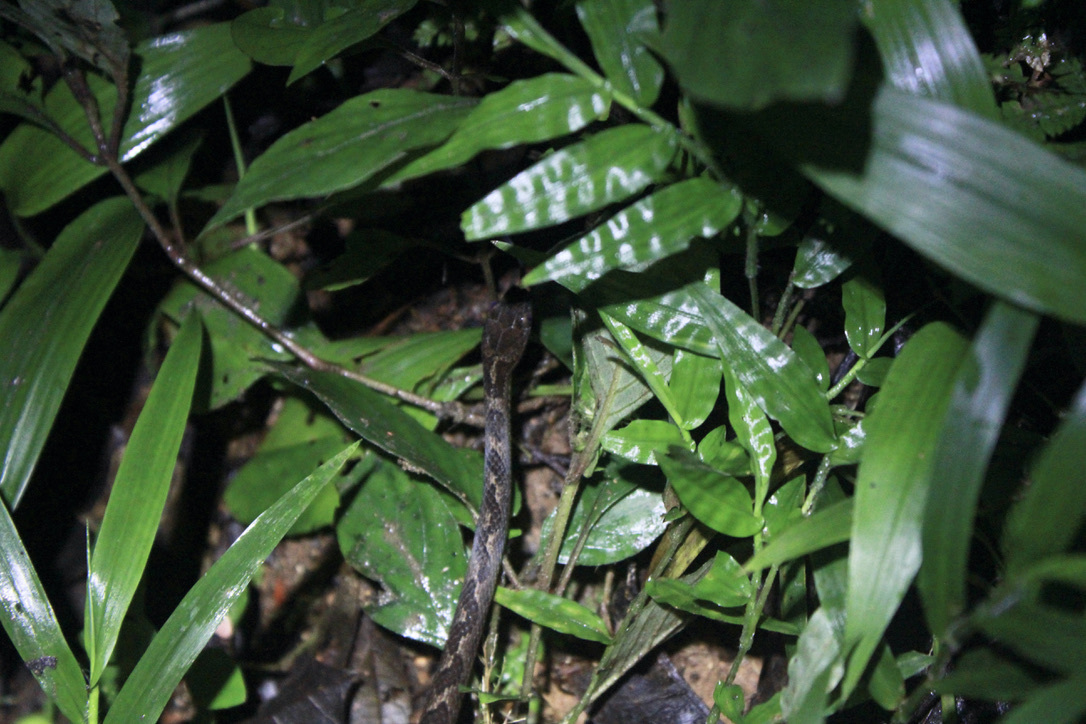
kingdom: Animalia
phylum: Chordata
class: Squamata
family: Colubridae
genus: Leptodeira
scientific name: Leptodeira ashmeadii
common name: Banded cat-eyed snake
